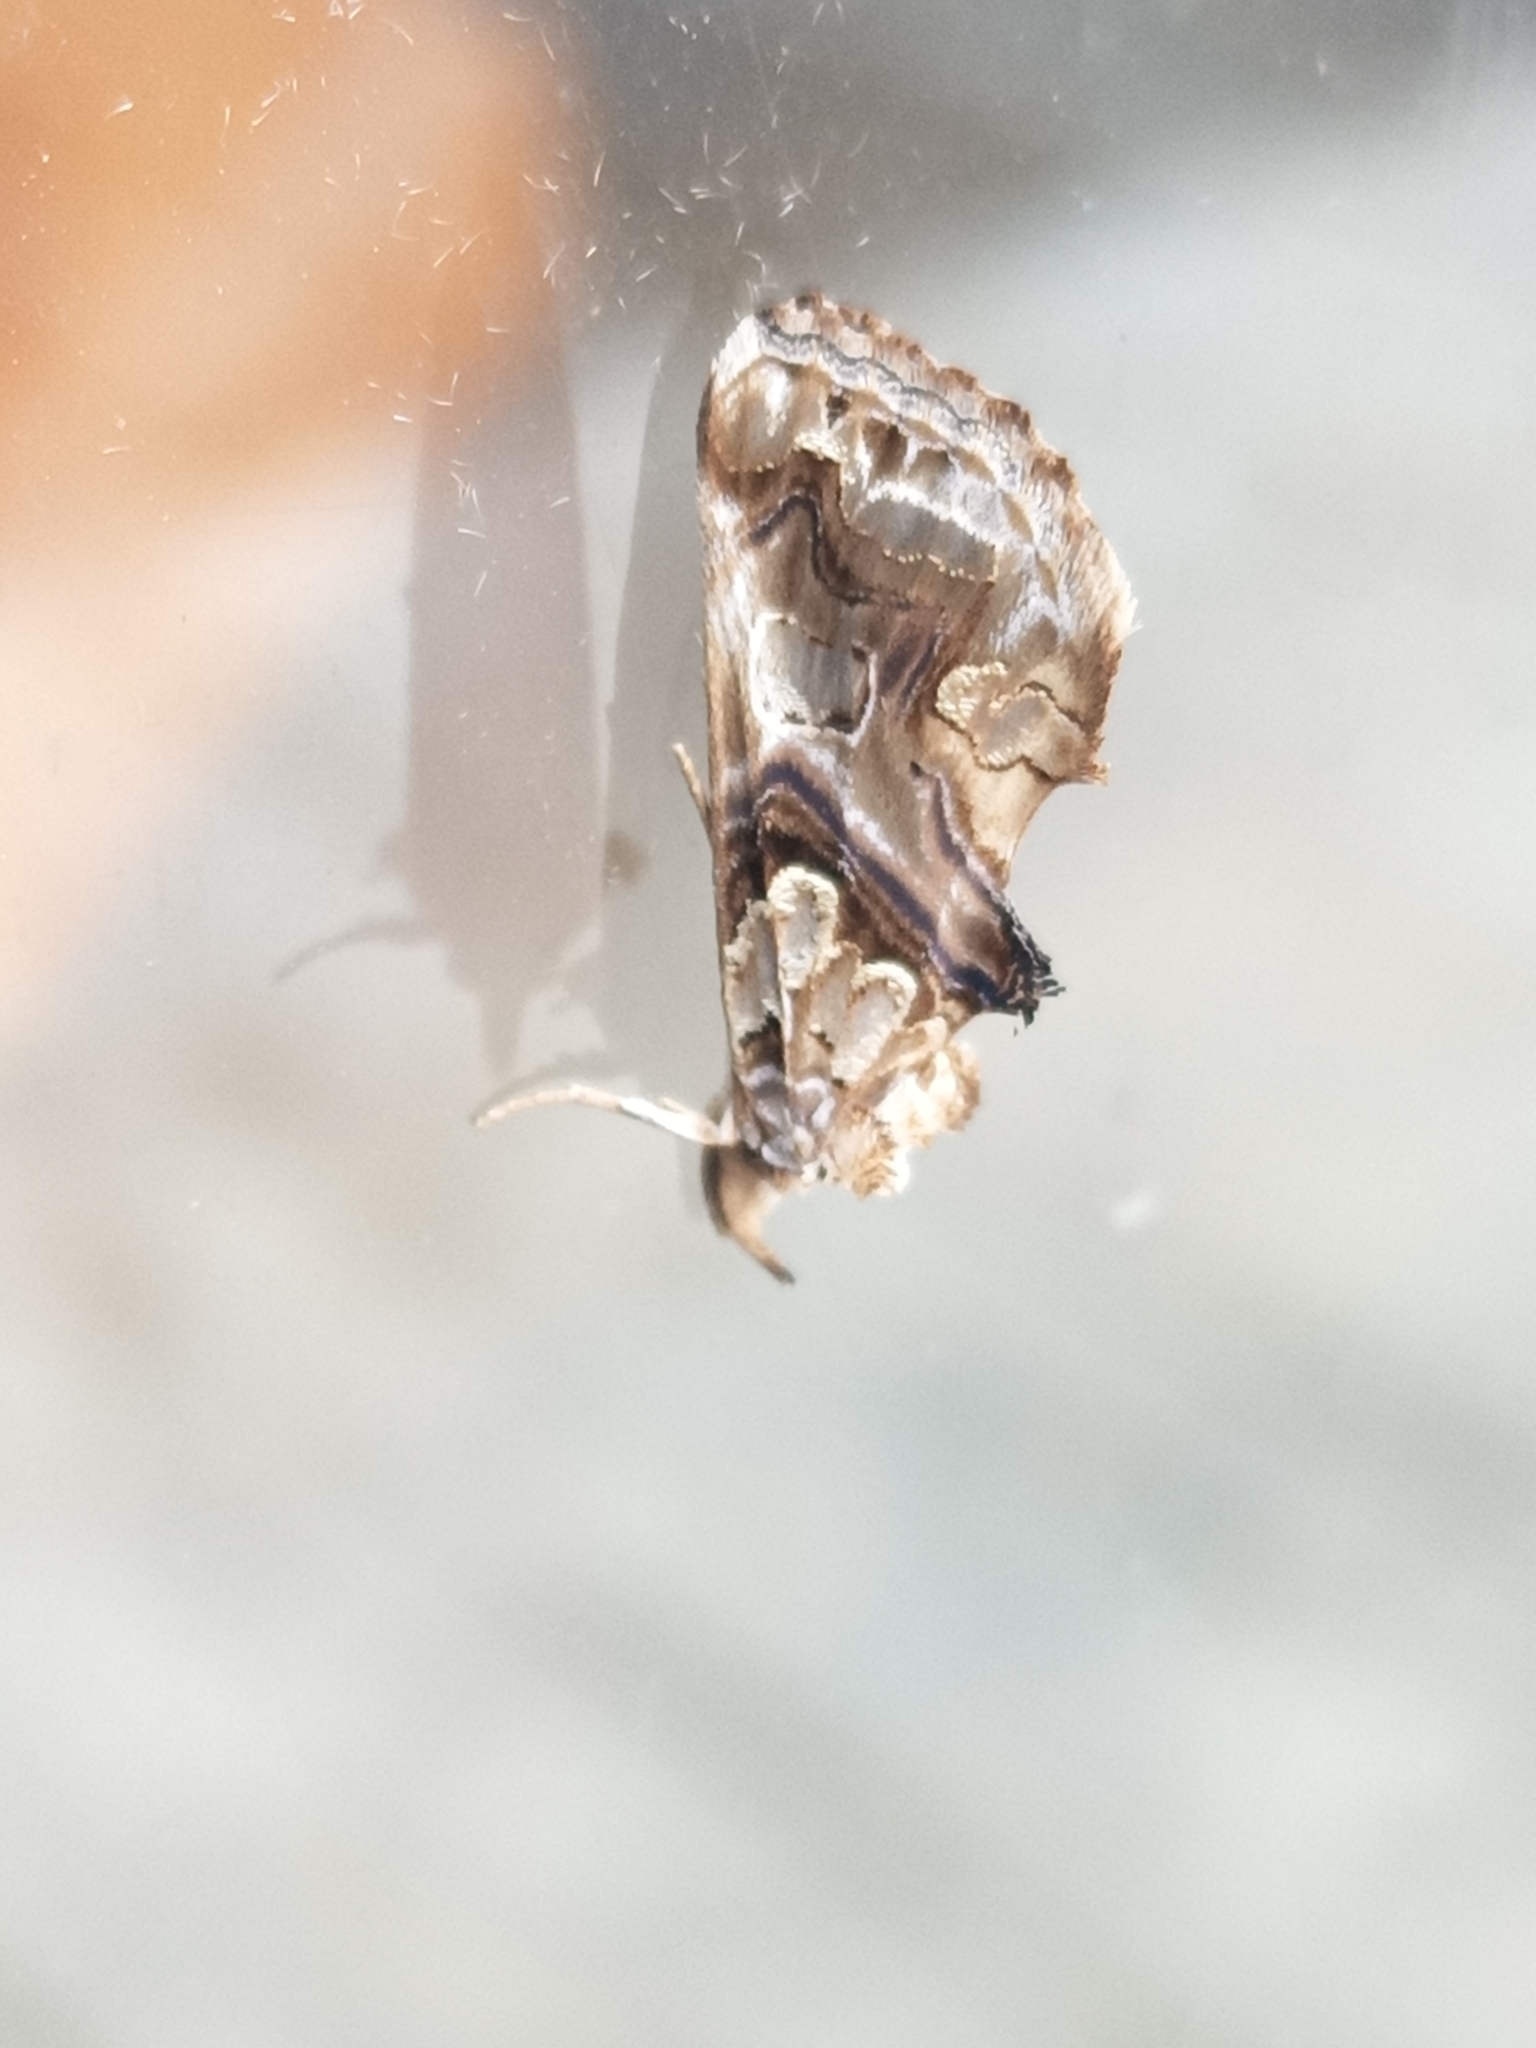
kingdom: Animalia
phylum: Arthropoda
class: Insecta
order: Lepidoptera
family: Erebidae
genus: Plusiodonta
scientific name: Plusiodonta compressipalpis
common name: Moonseed moth
